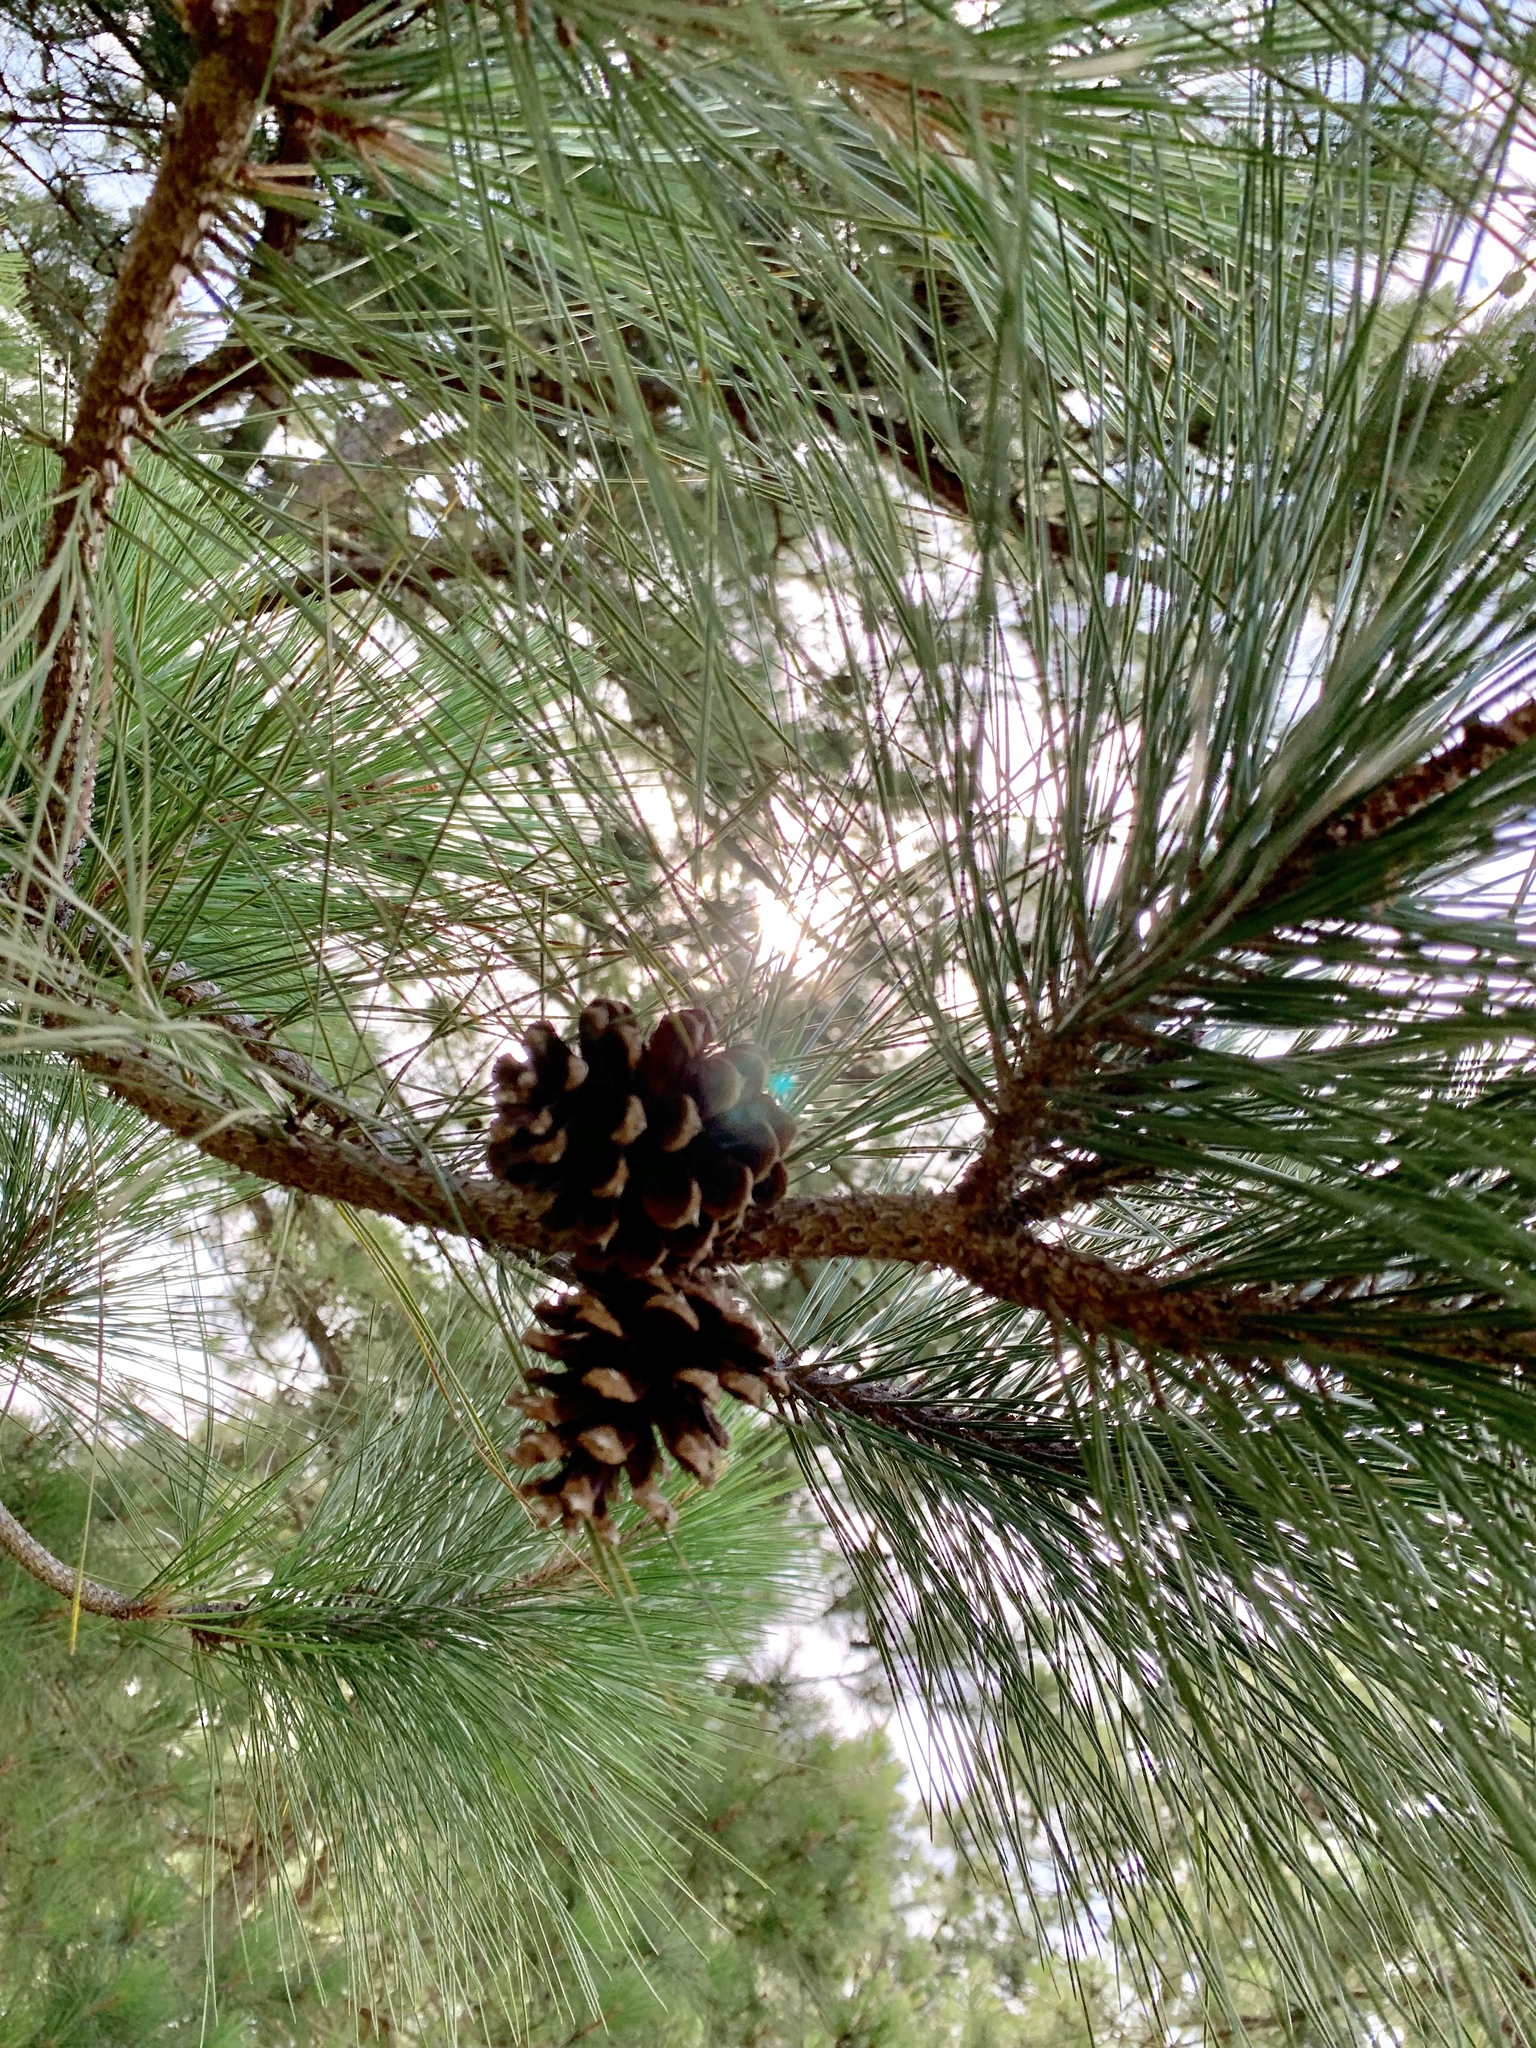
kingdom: Plantae
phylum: Tracheophyta
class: Pinopsida
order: Pinales
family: Pinaceae
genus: Pinus
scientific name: Pinus taeda
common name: Loblolly pine
